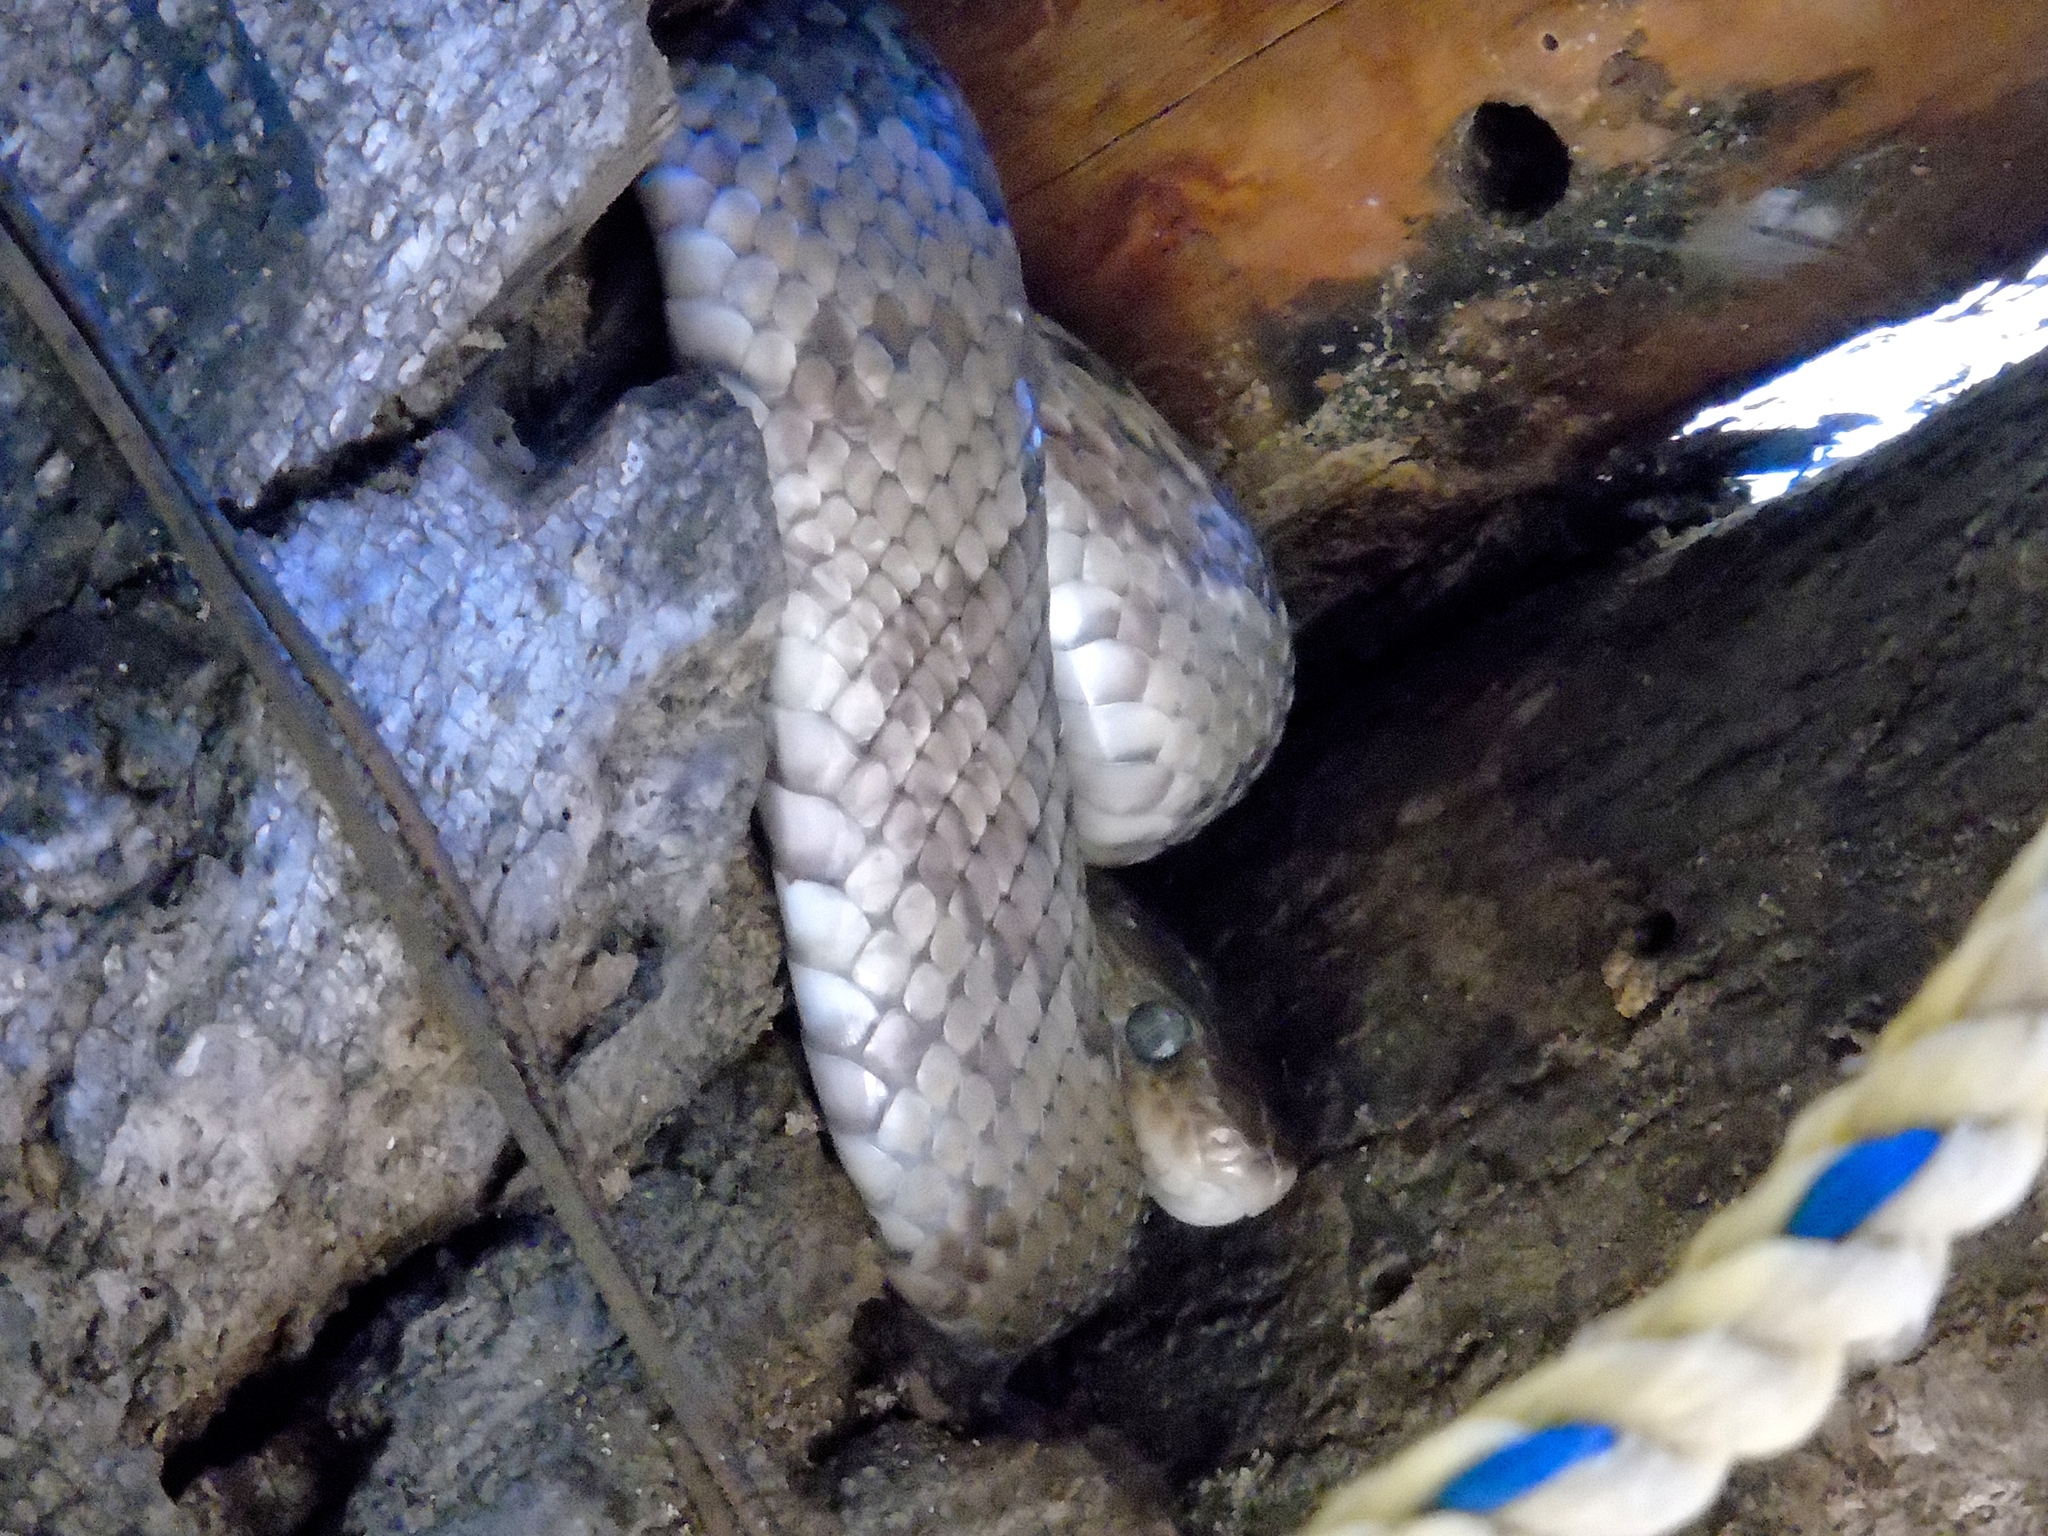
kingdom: Animalia
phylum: Chordata
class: Squamata
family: Colubridae
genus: Trimorphodon
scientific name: Trimorphodon paucimaculatus
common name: Sinaloan lyresnake
